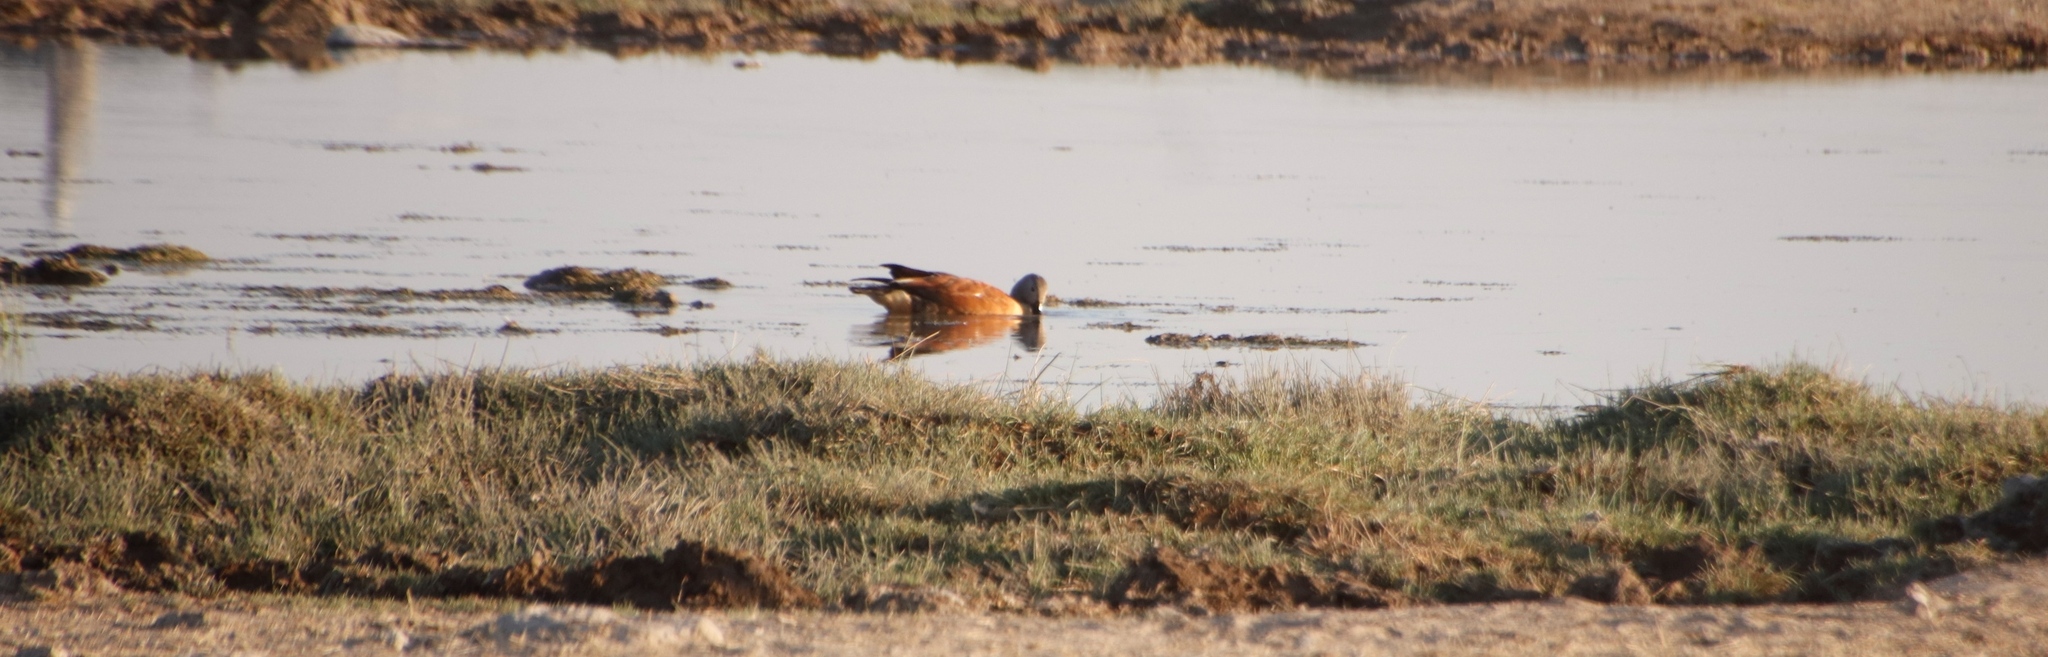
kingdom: Animalia
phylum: Chordata
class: Aves
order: Anseriformes
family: Anatidae
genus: Tadorna
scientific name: Tadorna cana
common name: South african shelduck
